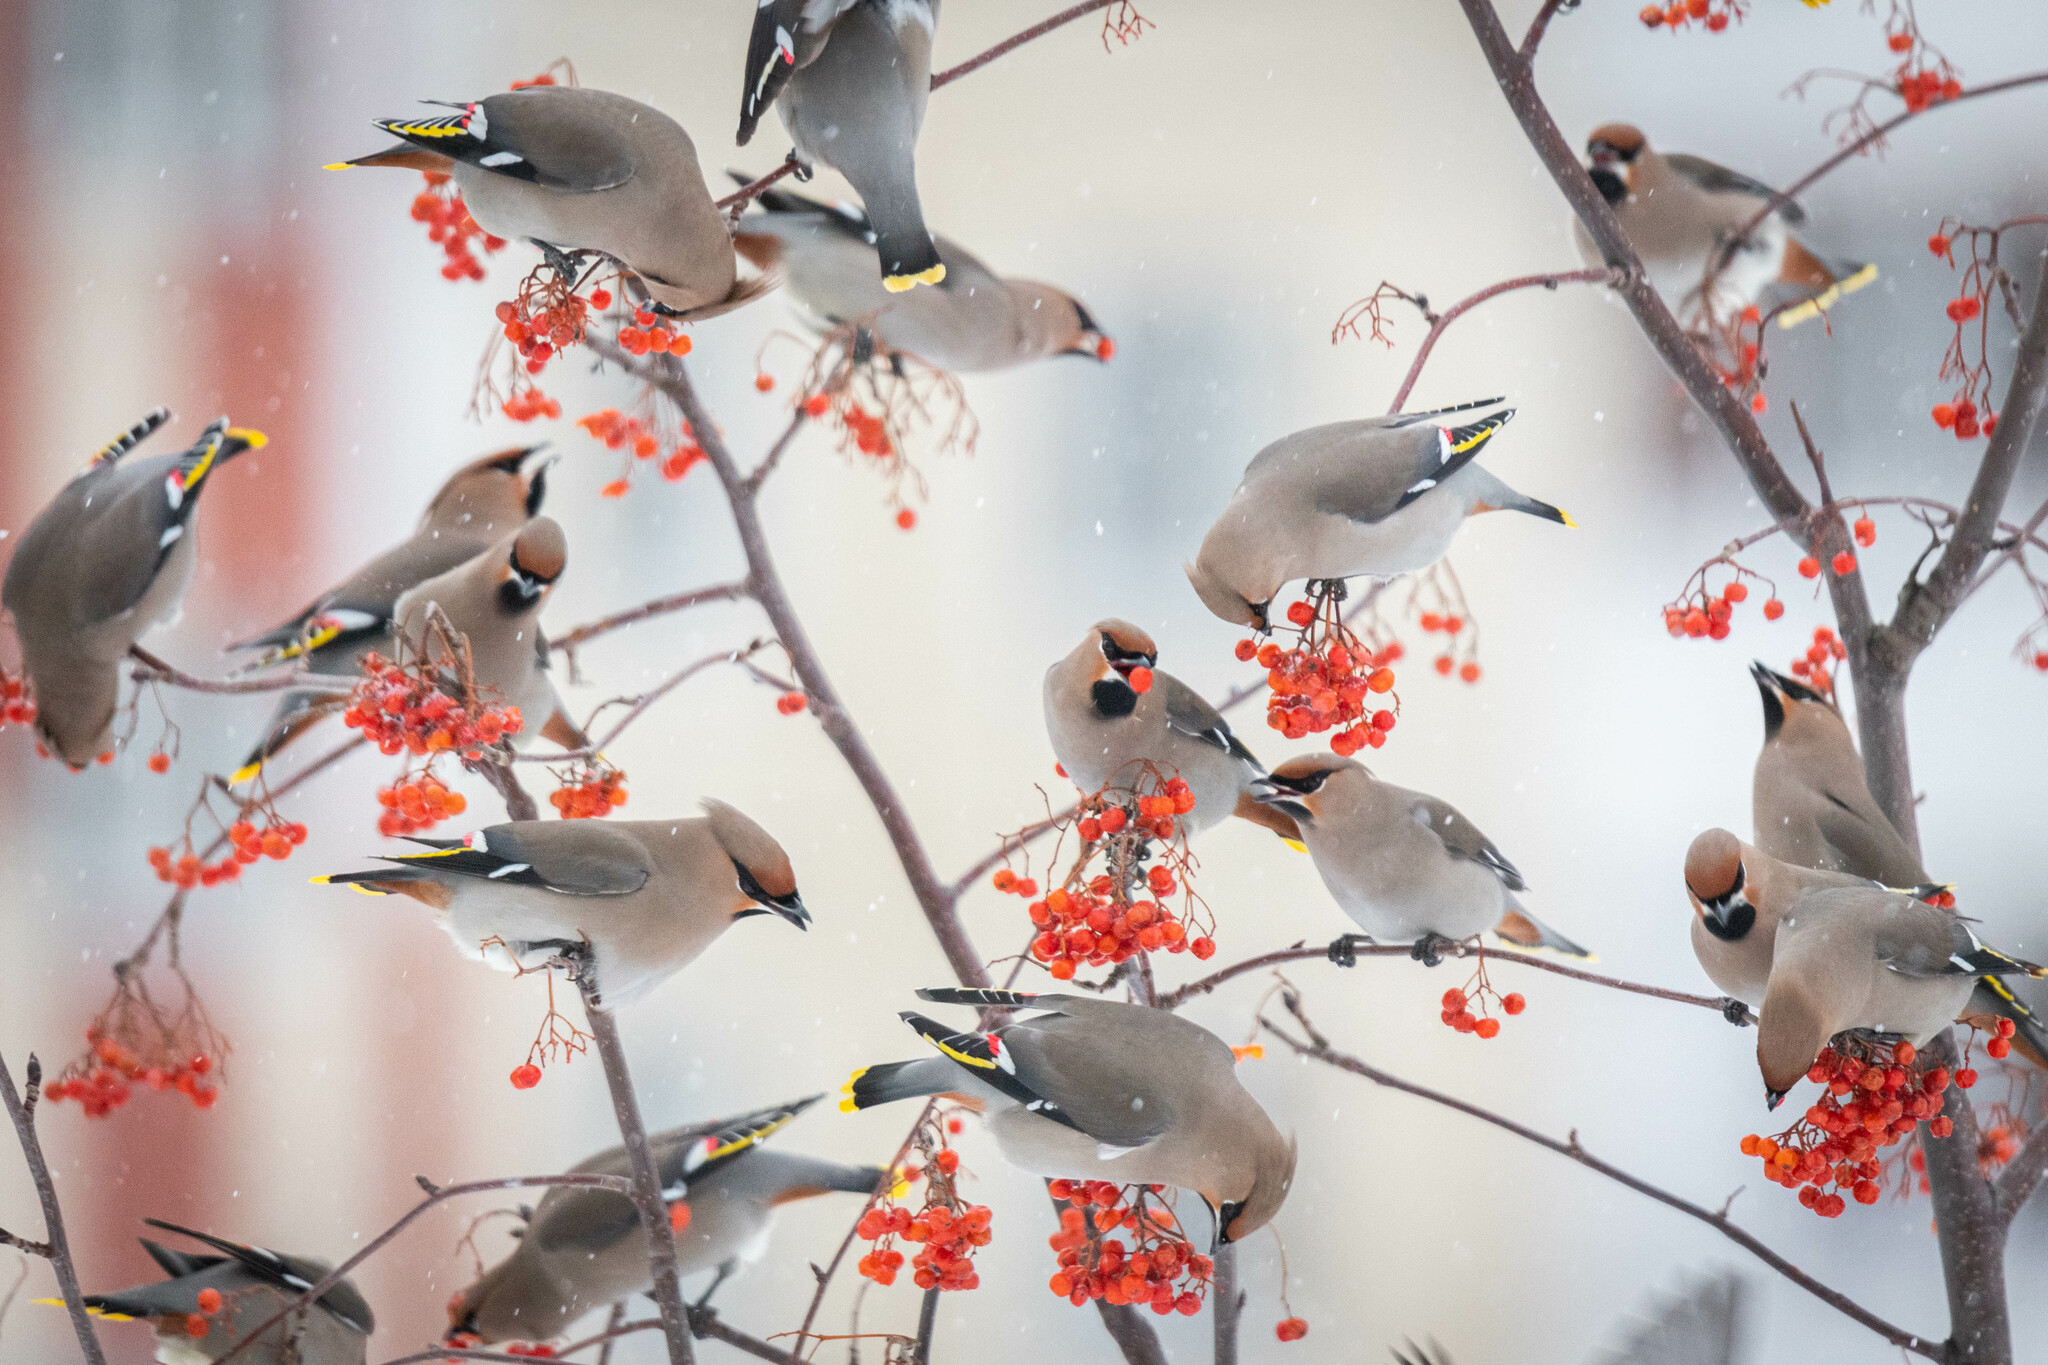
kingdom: Animalia
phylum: Chordata
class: Aves
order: Passeriformes
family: Bombycillidae
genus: Bombycilla
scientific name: Bombycilla garrulus
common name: Bohemian waxwing
